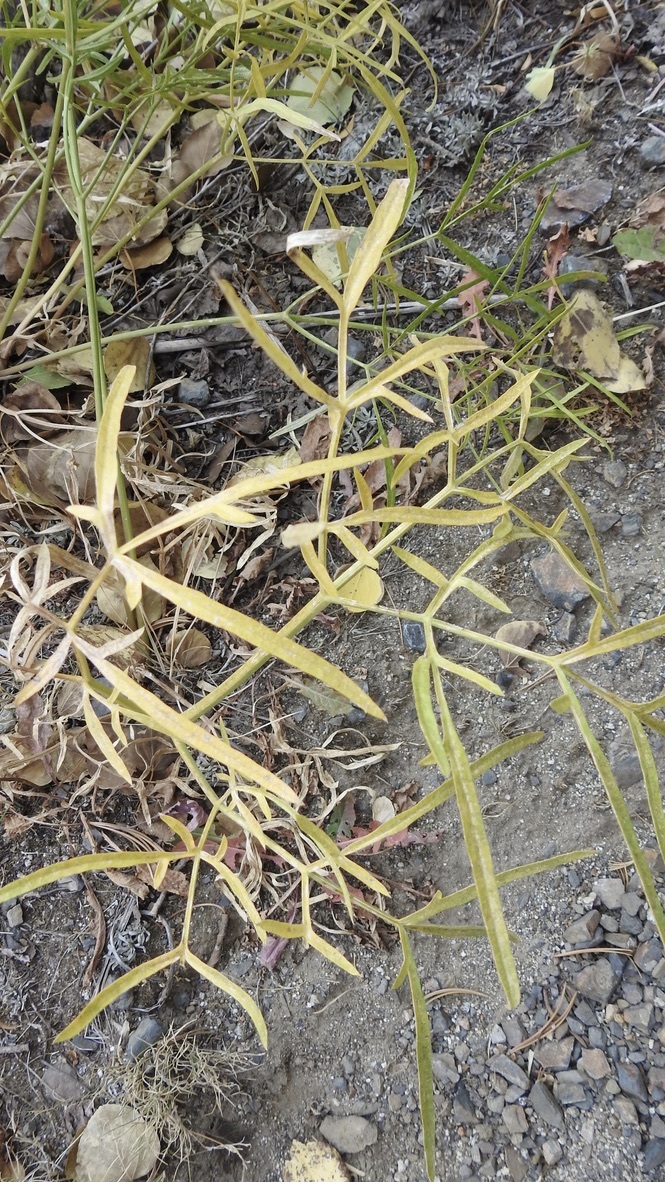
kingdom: Plantae
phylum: Tracheophyta
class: Magnoliopsida
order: Apiales
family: Apiaceae
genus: Angelica
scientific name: Angelica lineariloba
